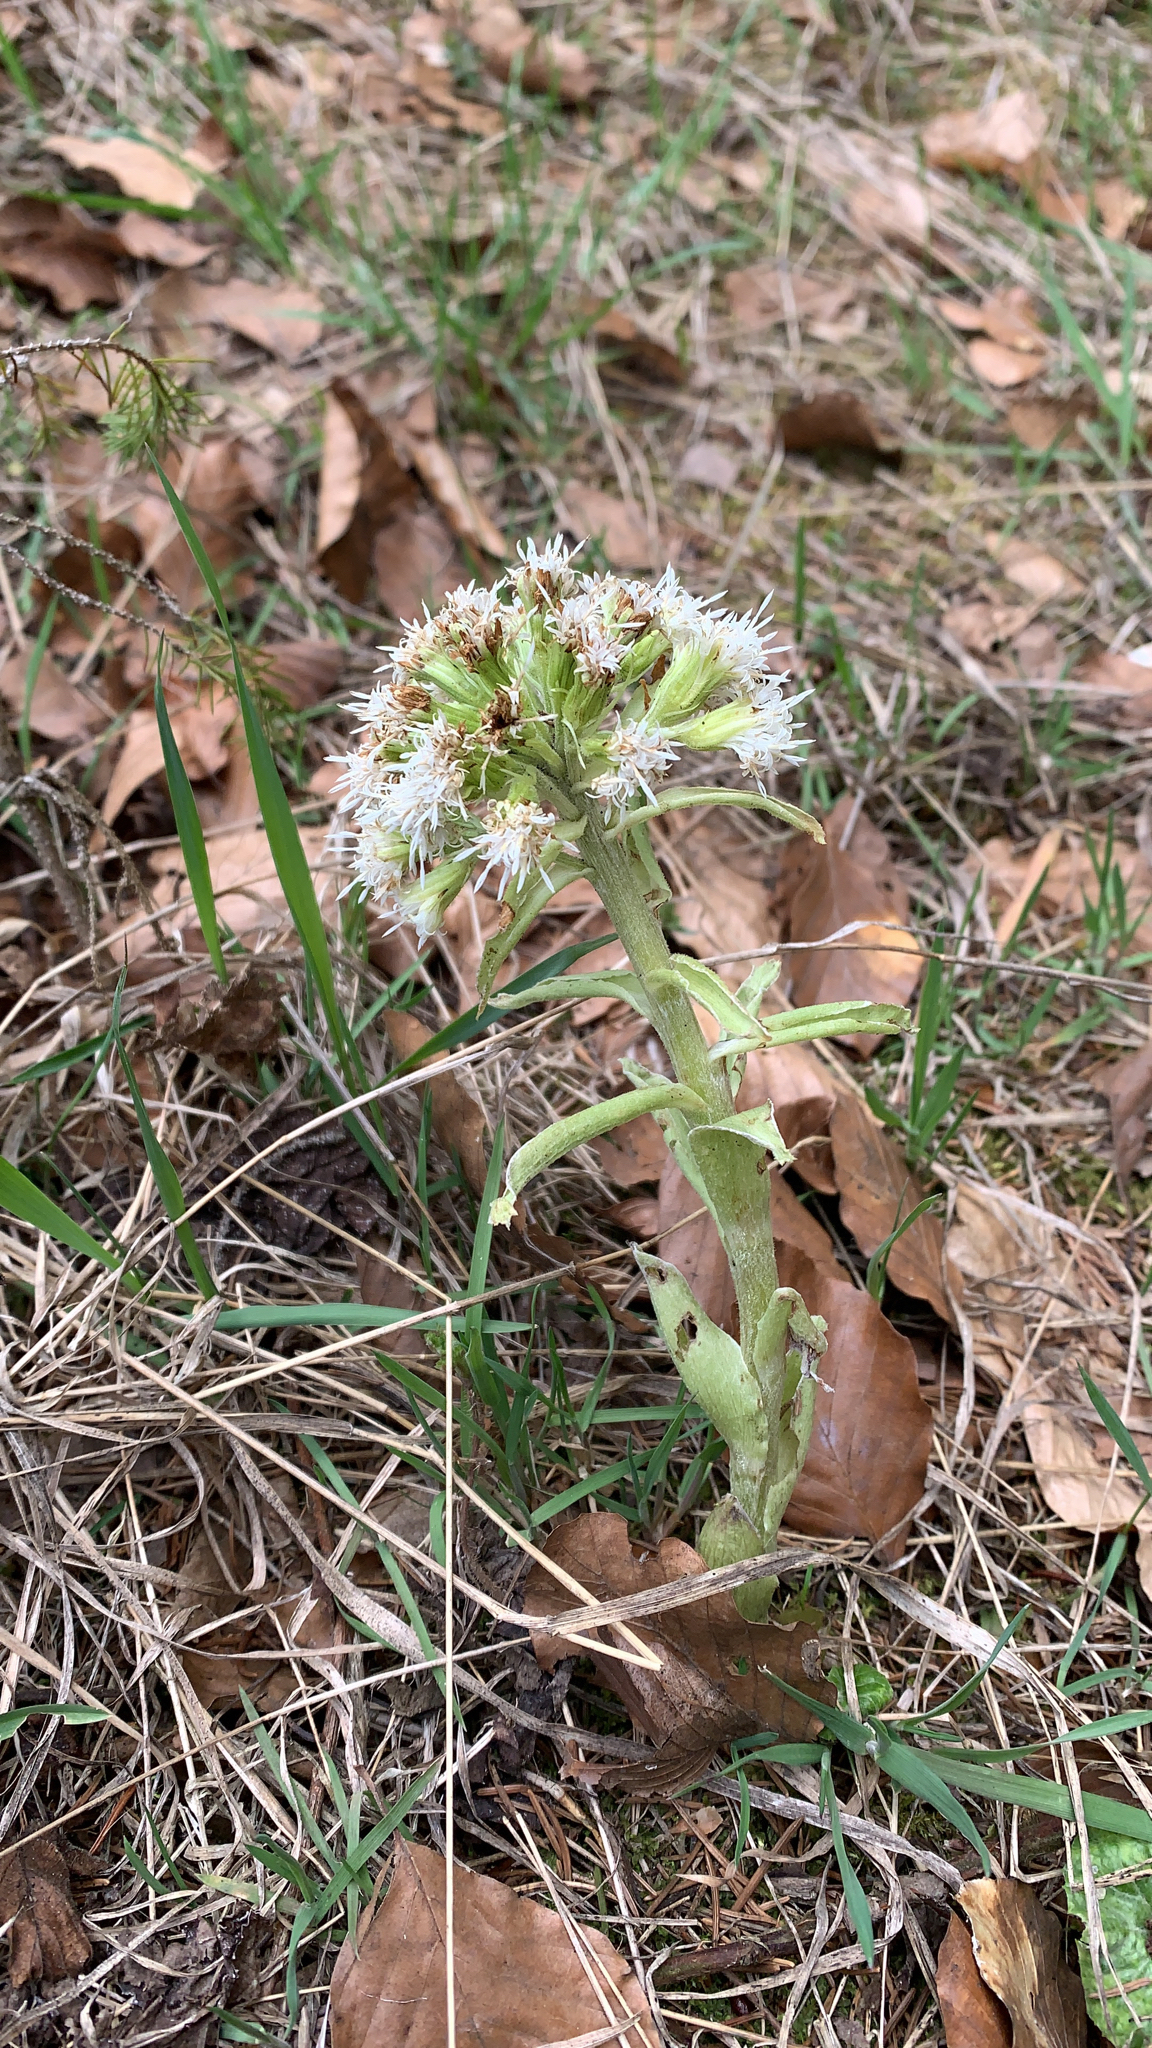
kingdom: Plantae
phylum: Tracheophyta
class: Magnoliopsida
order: Asterales
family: Asteraceae
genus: Petasites
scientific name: Petasites albus
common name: White butterbur
